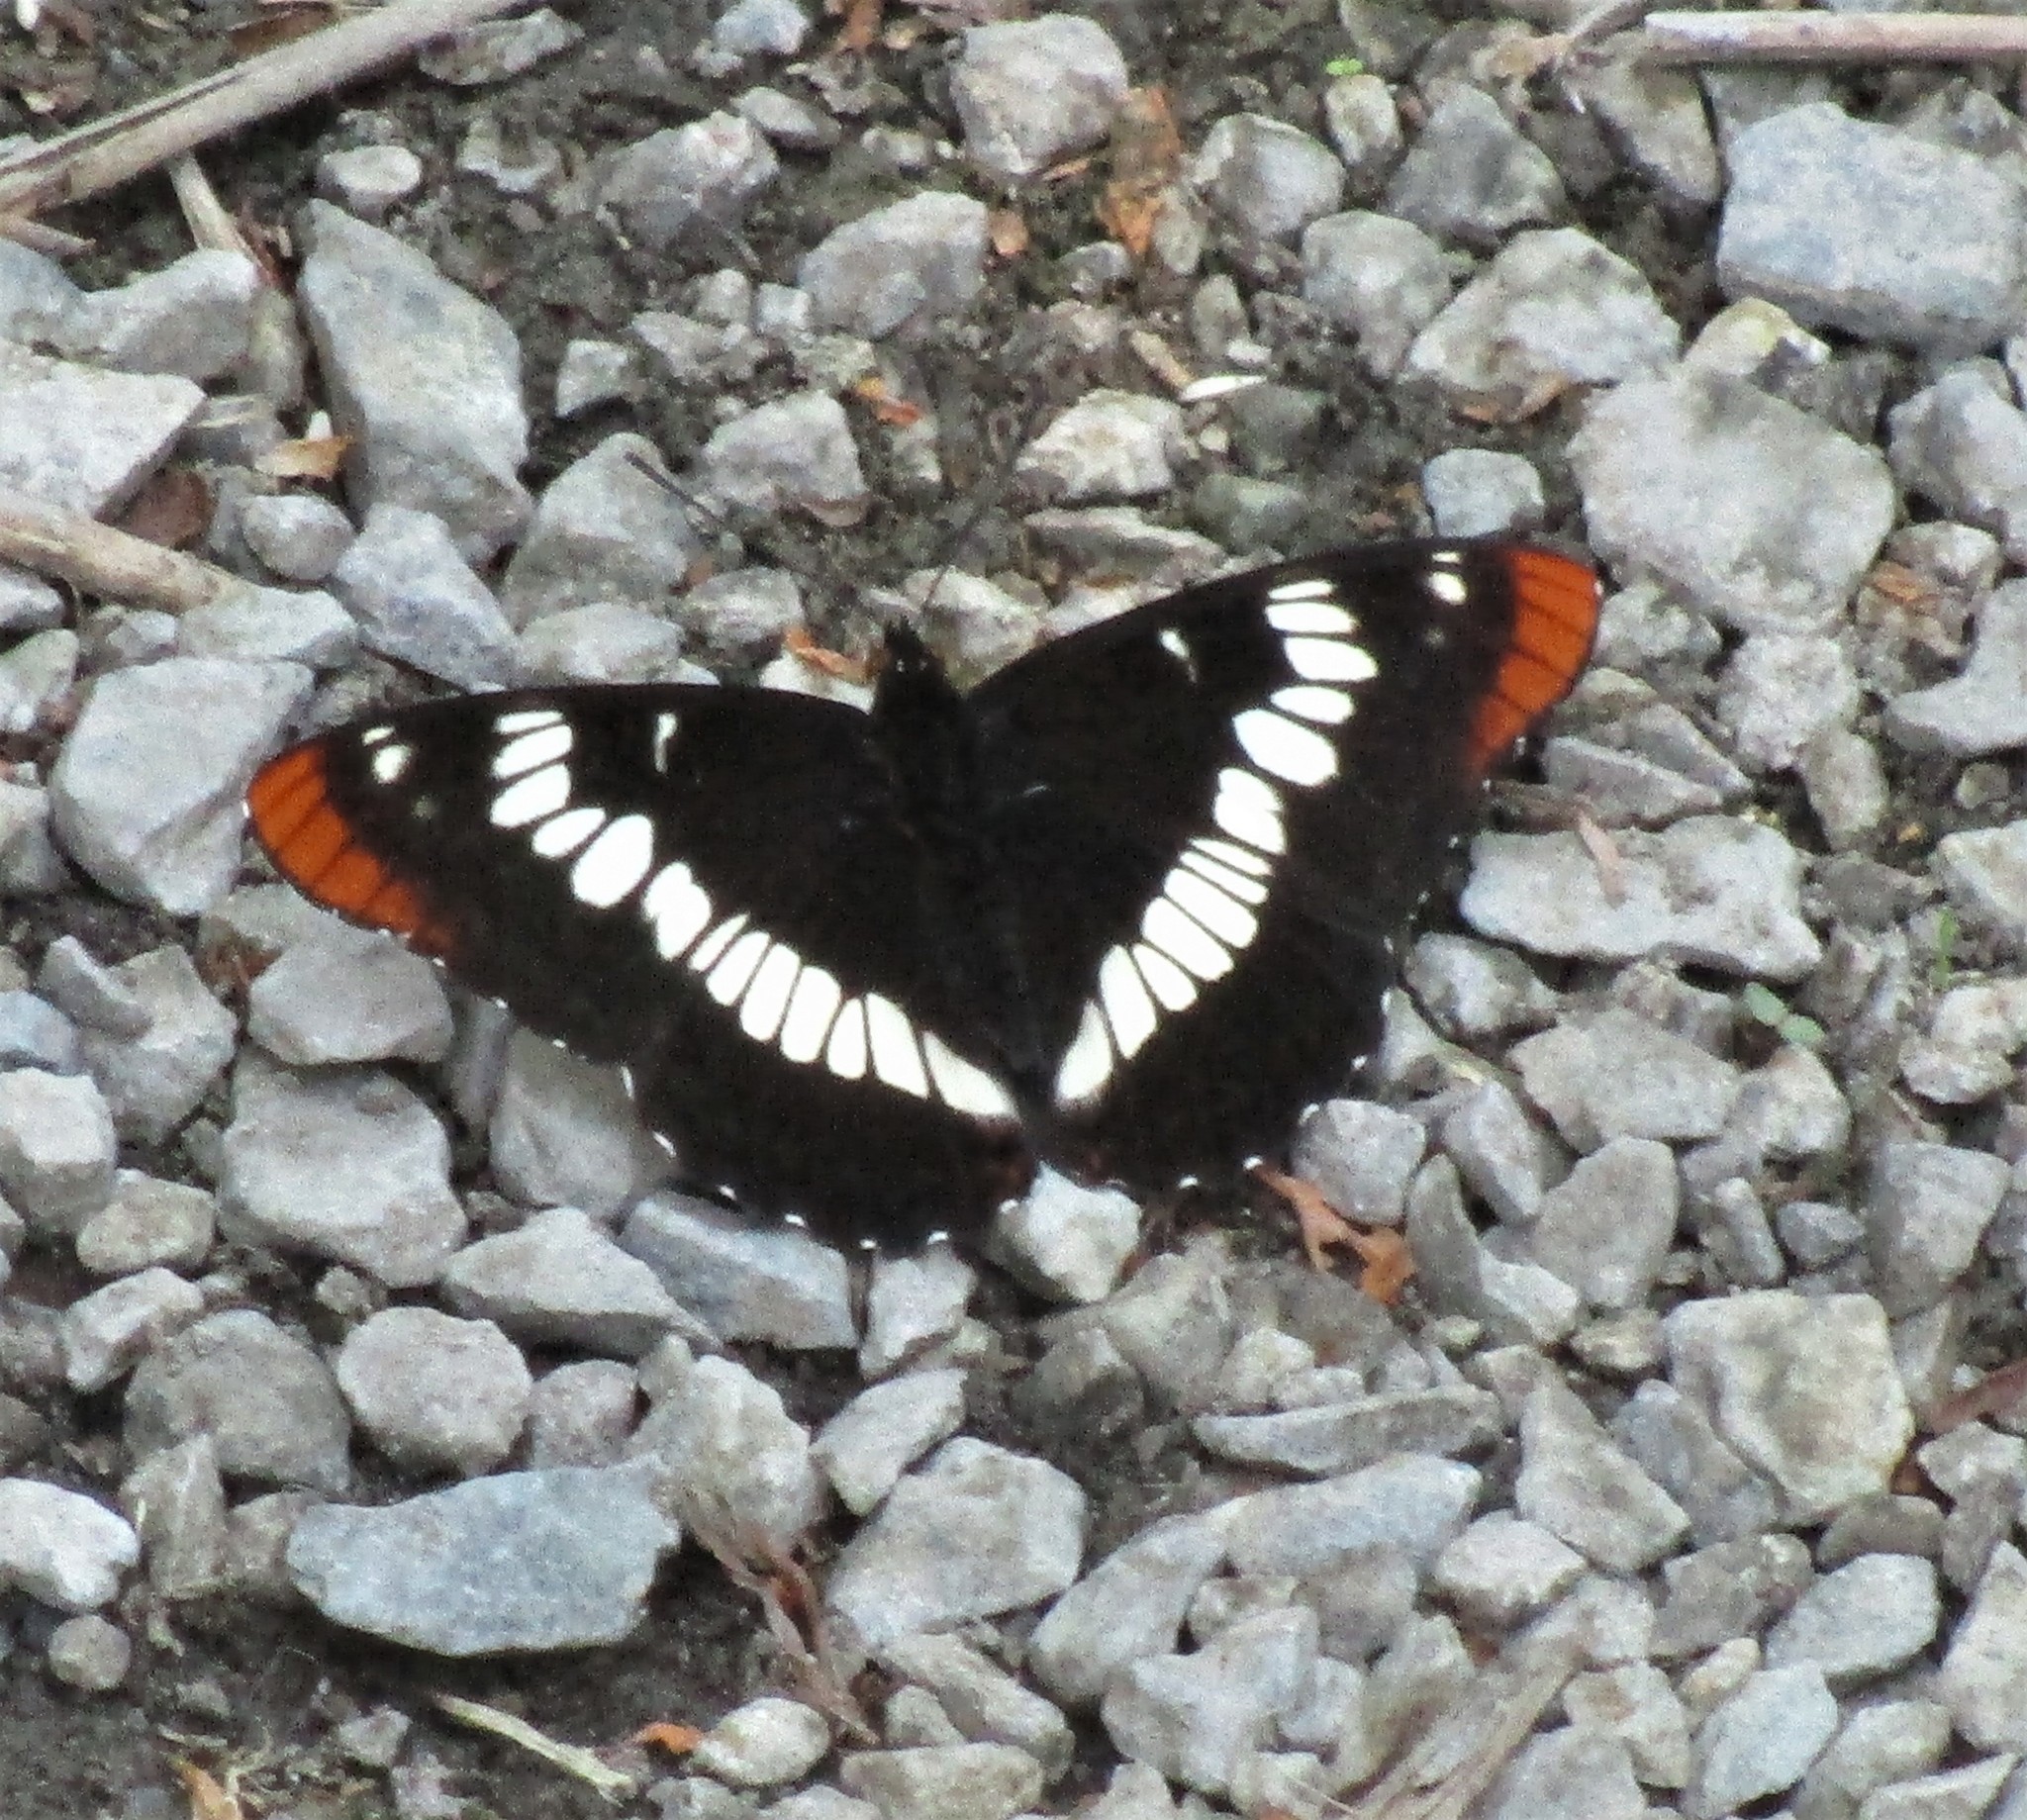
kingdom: Animalia
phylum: Arthropoda
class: Insecta
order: Lepidoptera
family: Nymphalidae
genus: Limenitis
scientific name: Limenitis lorquini
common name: Lorquin's admiral
